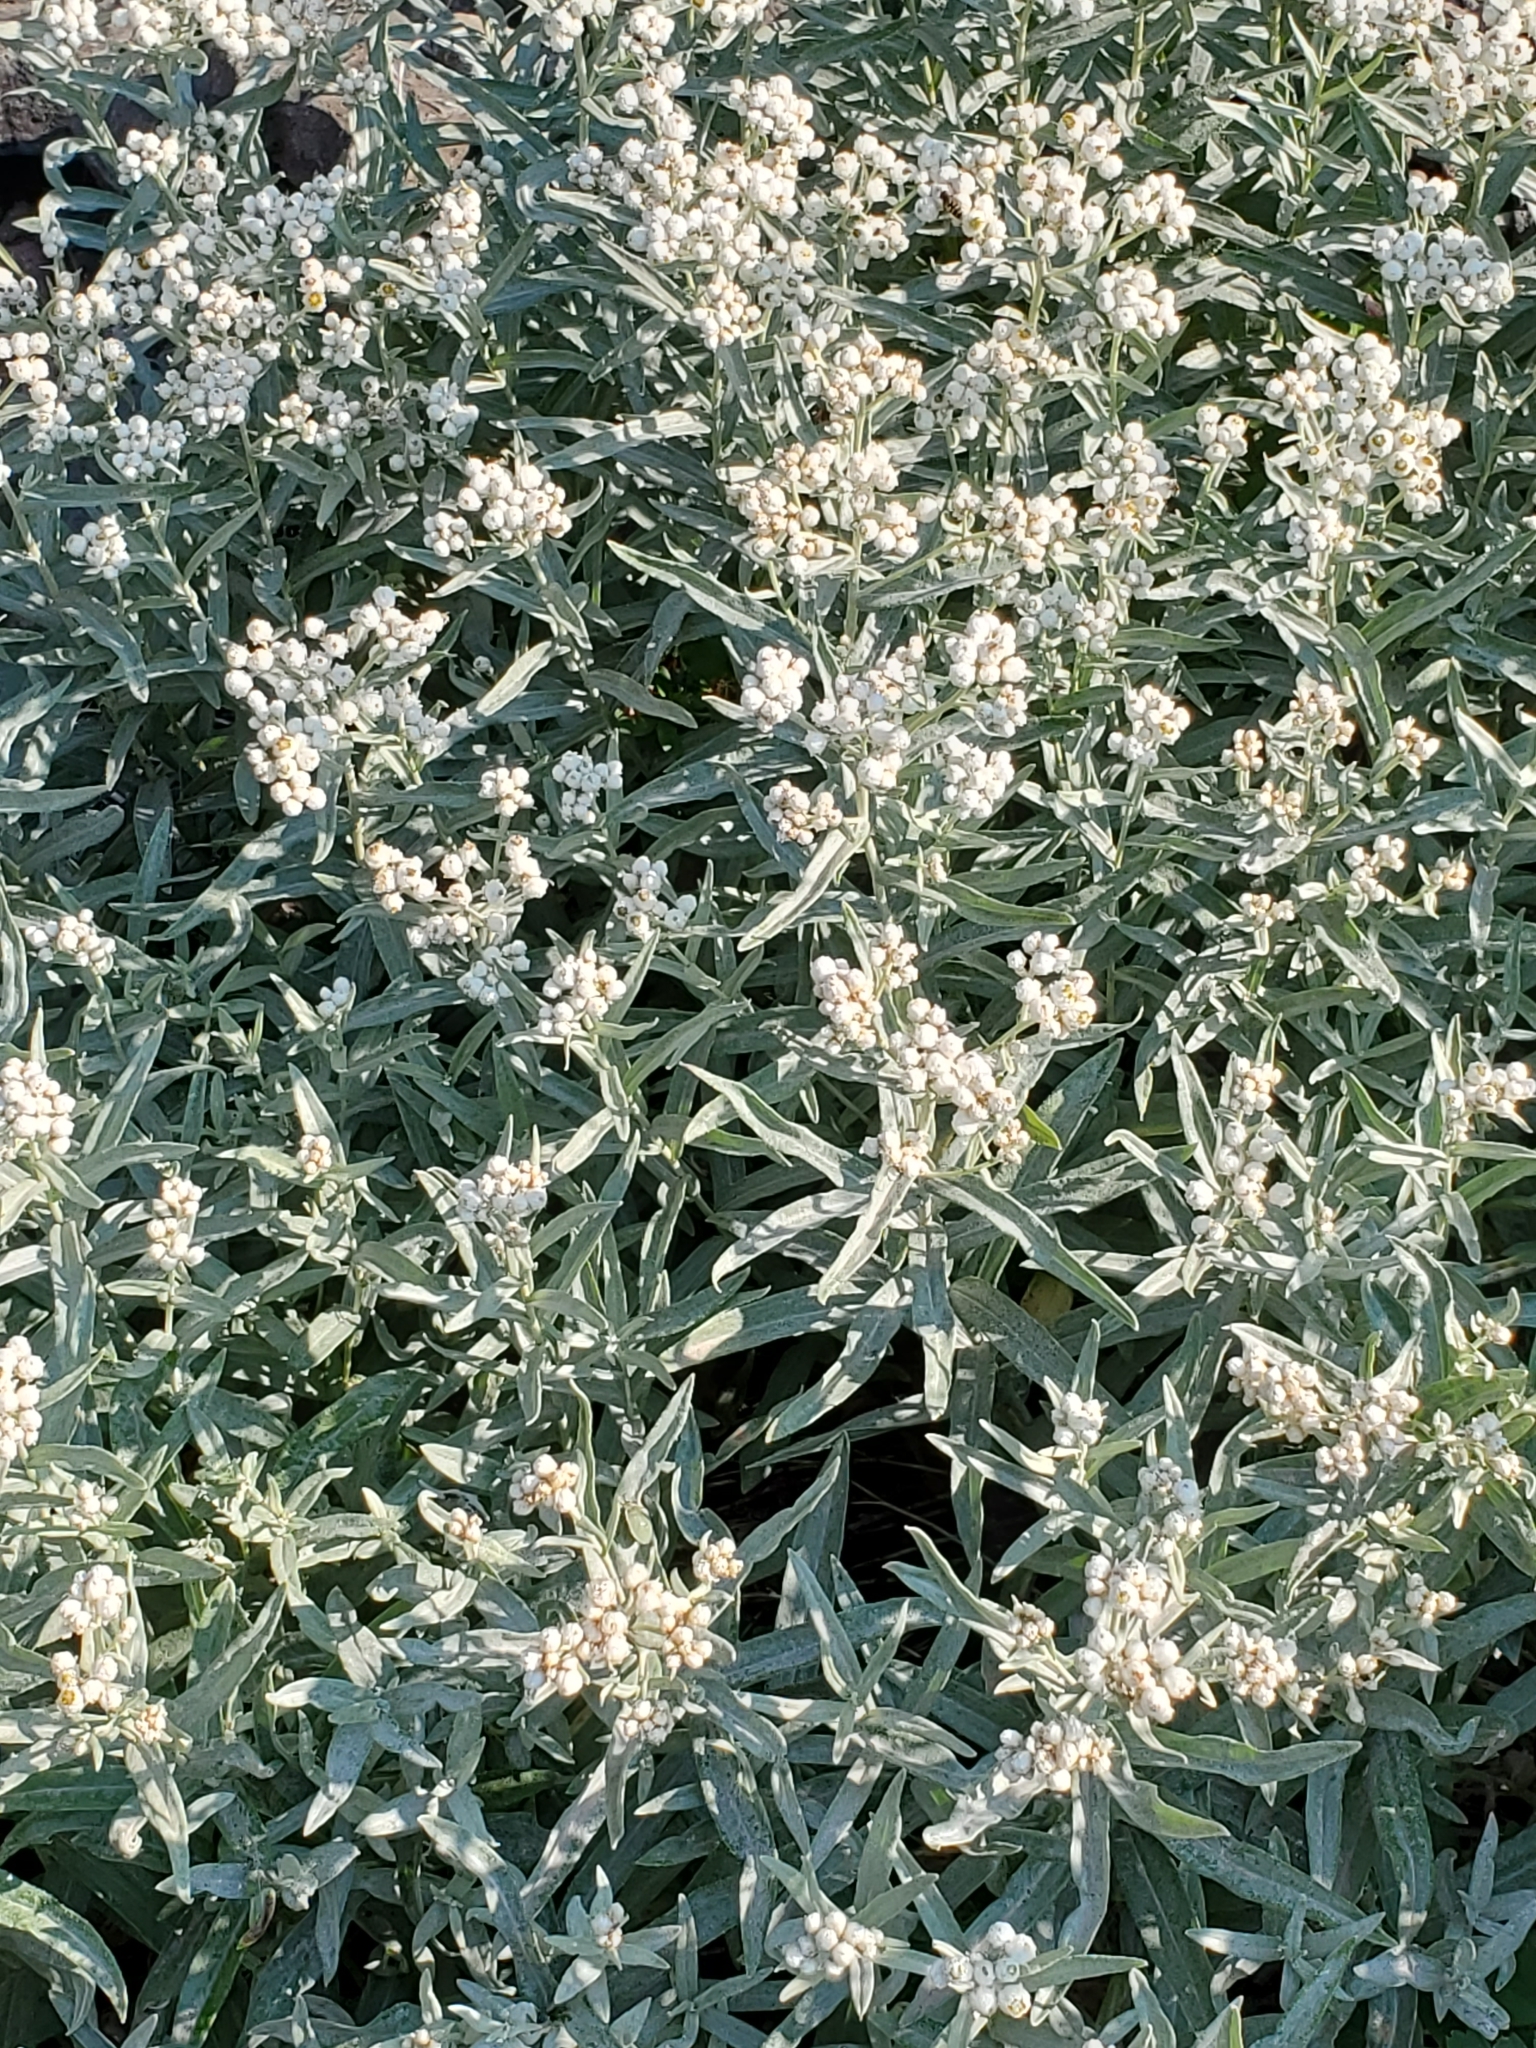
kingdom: Plantae
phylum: Tracheophyta
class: Magnoliopsida
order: Asterales
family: Asteraceae
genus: Anaphalis
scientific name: Anaphalis margaritacea
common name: Pearly everlasting
